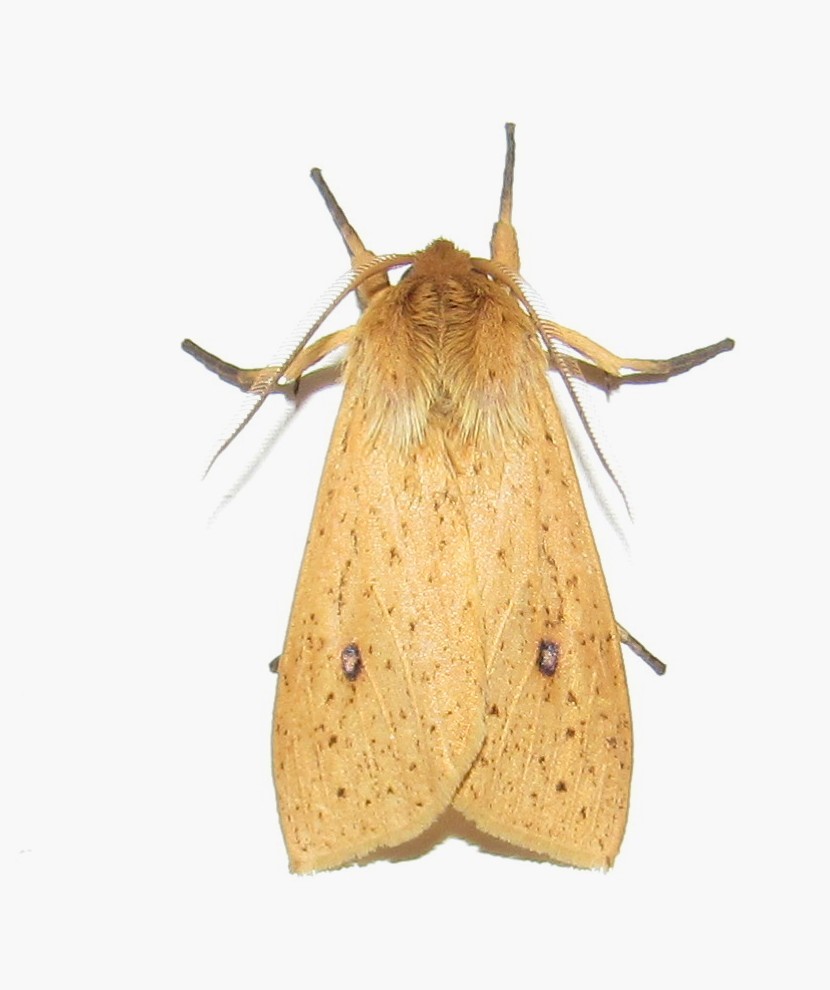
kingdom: Animalia
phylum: Arthropoda
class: Insecta
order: Lepidoptera
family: Erebidae
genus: Leucanopsis
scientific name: Leucanopsis leucanina
